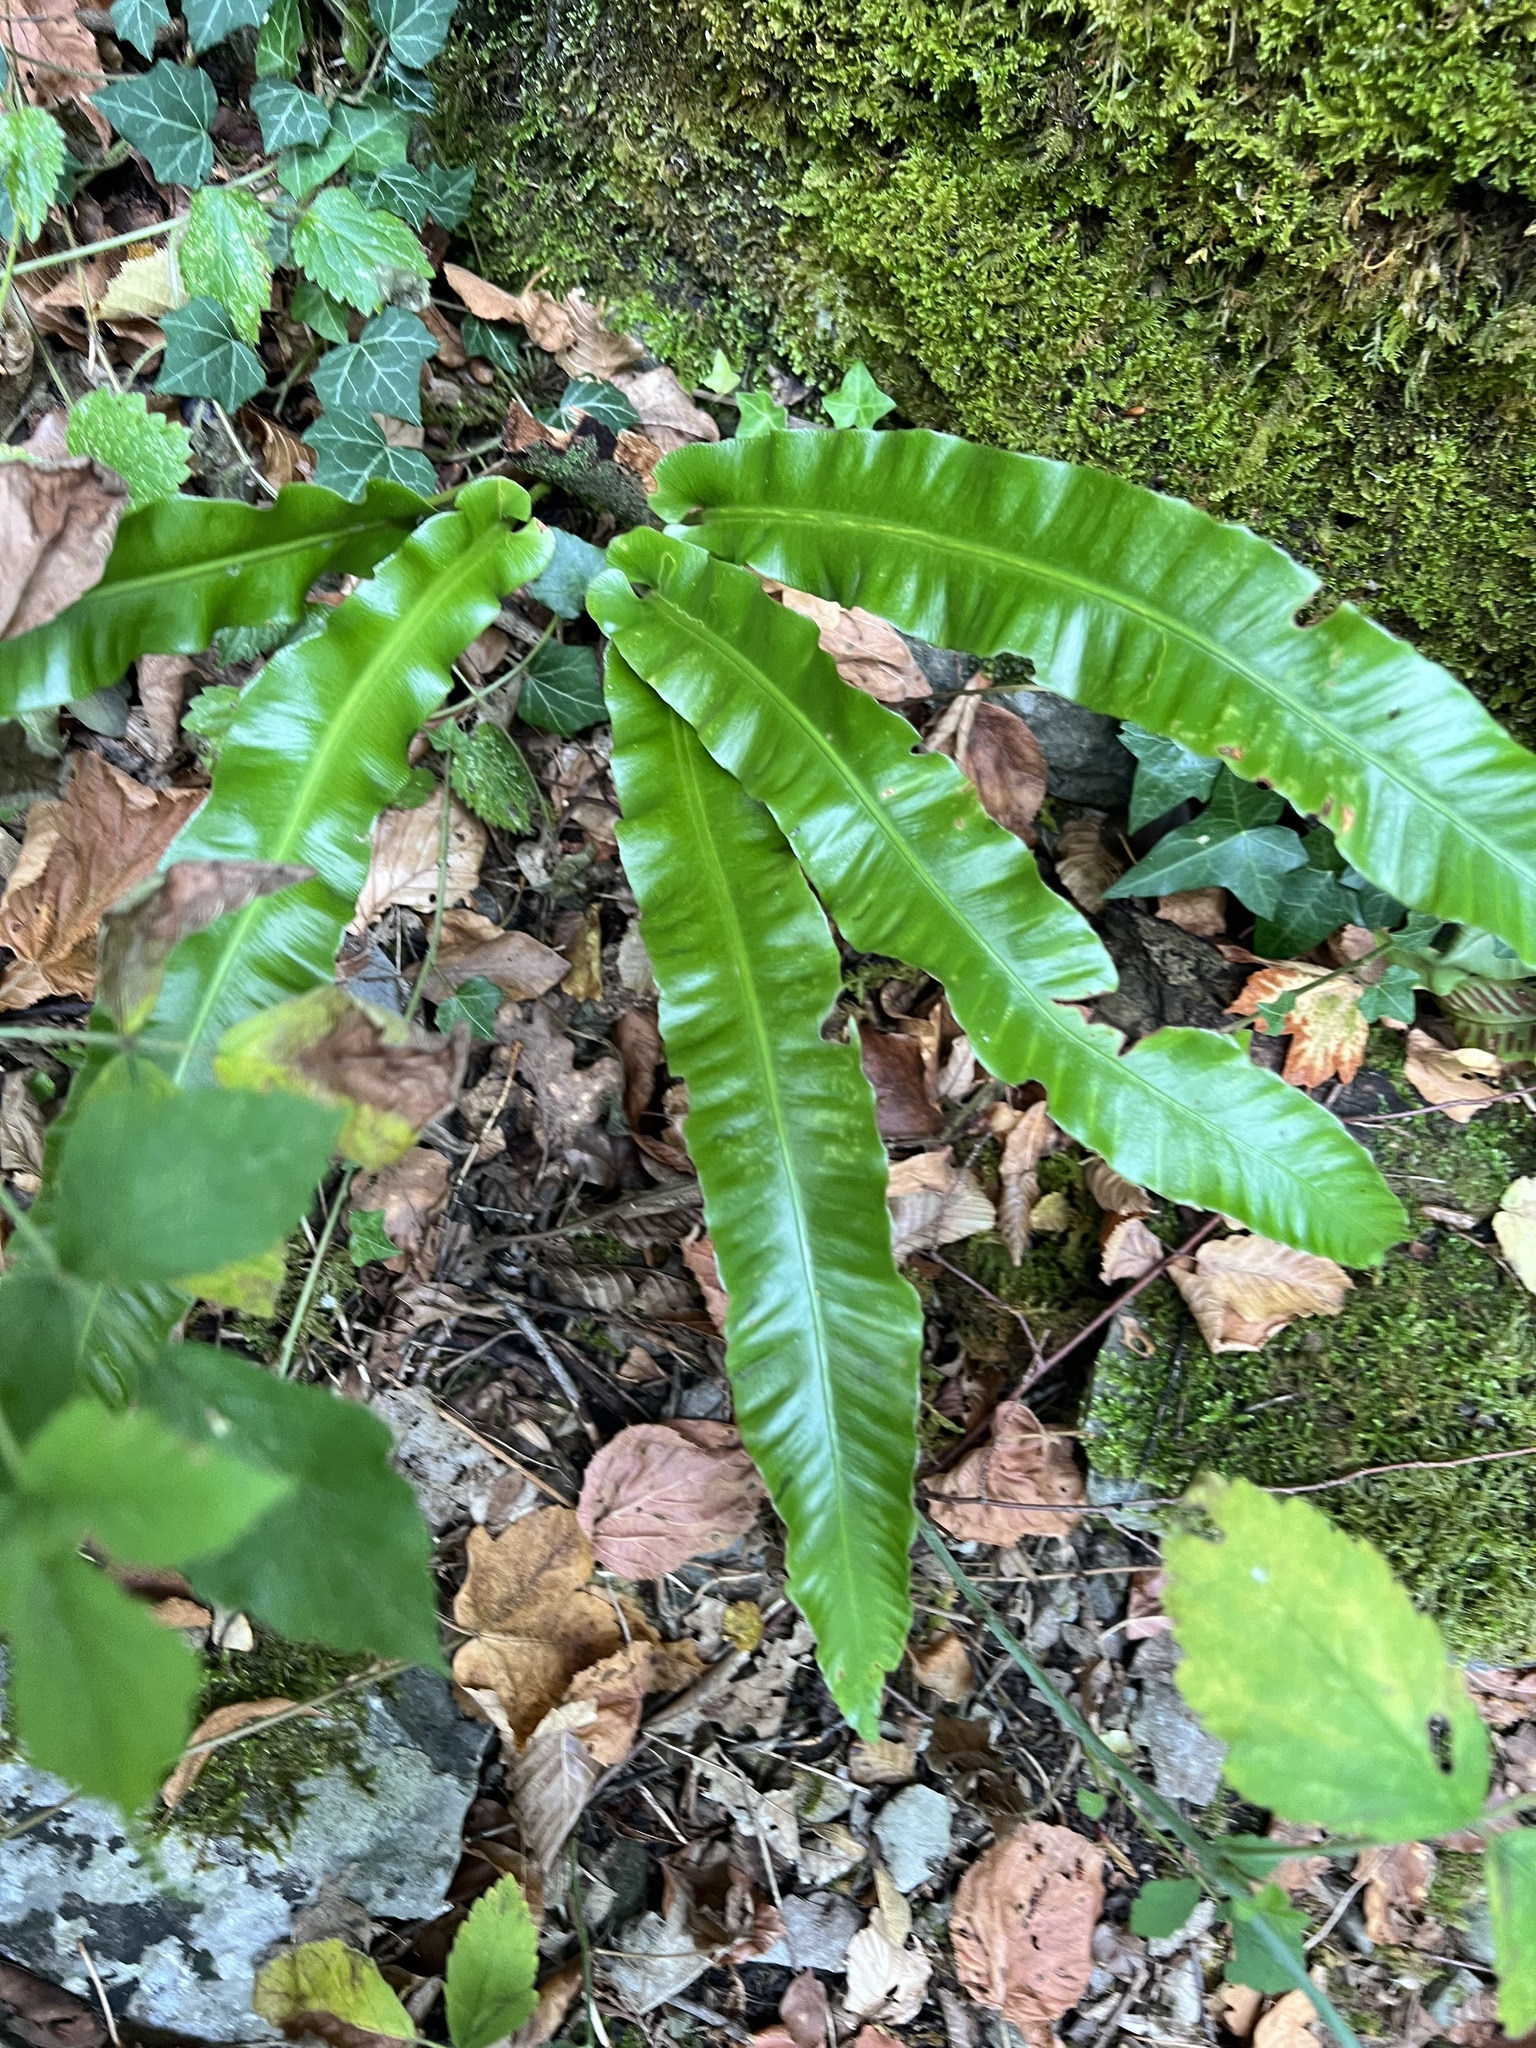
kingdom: Plantae
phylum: Tracheophyta
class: Polypodiopsida
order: Polypodiales
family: Aspleniaceae
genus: Asplenium
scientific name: Asplenium scolopendrium
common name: Hart's-tongue fern
